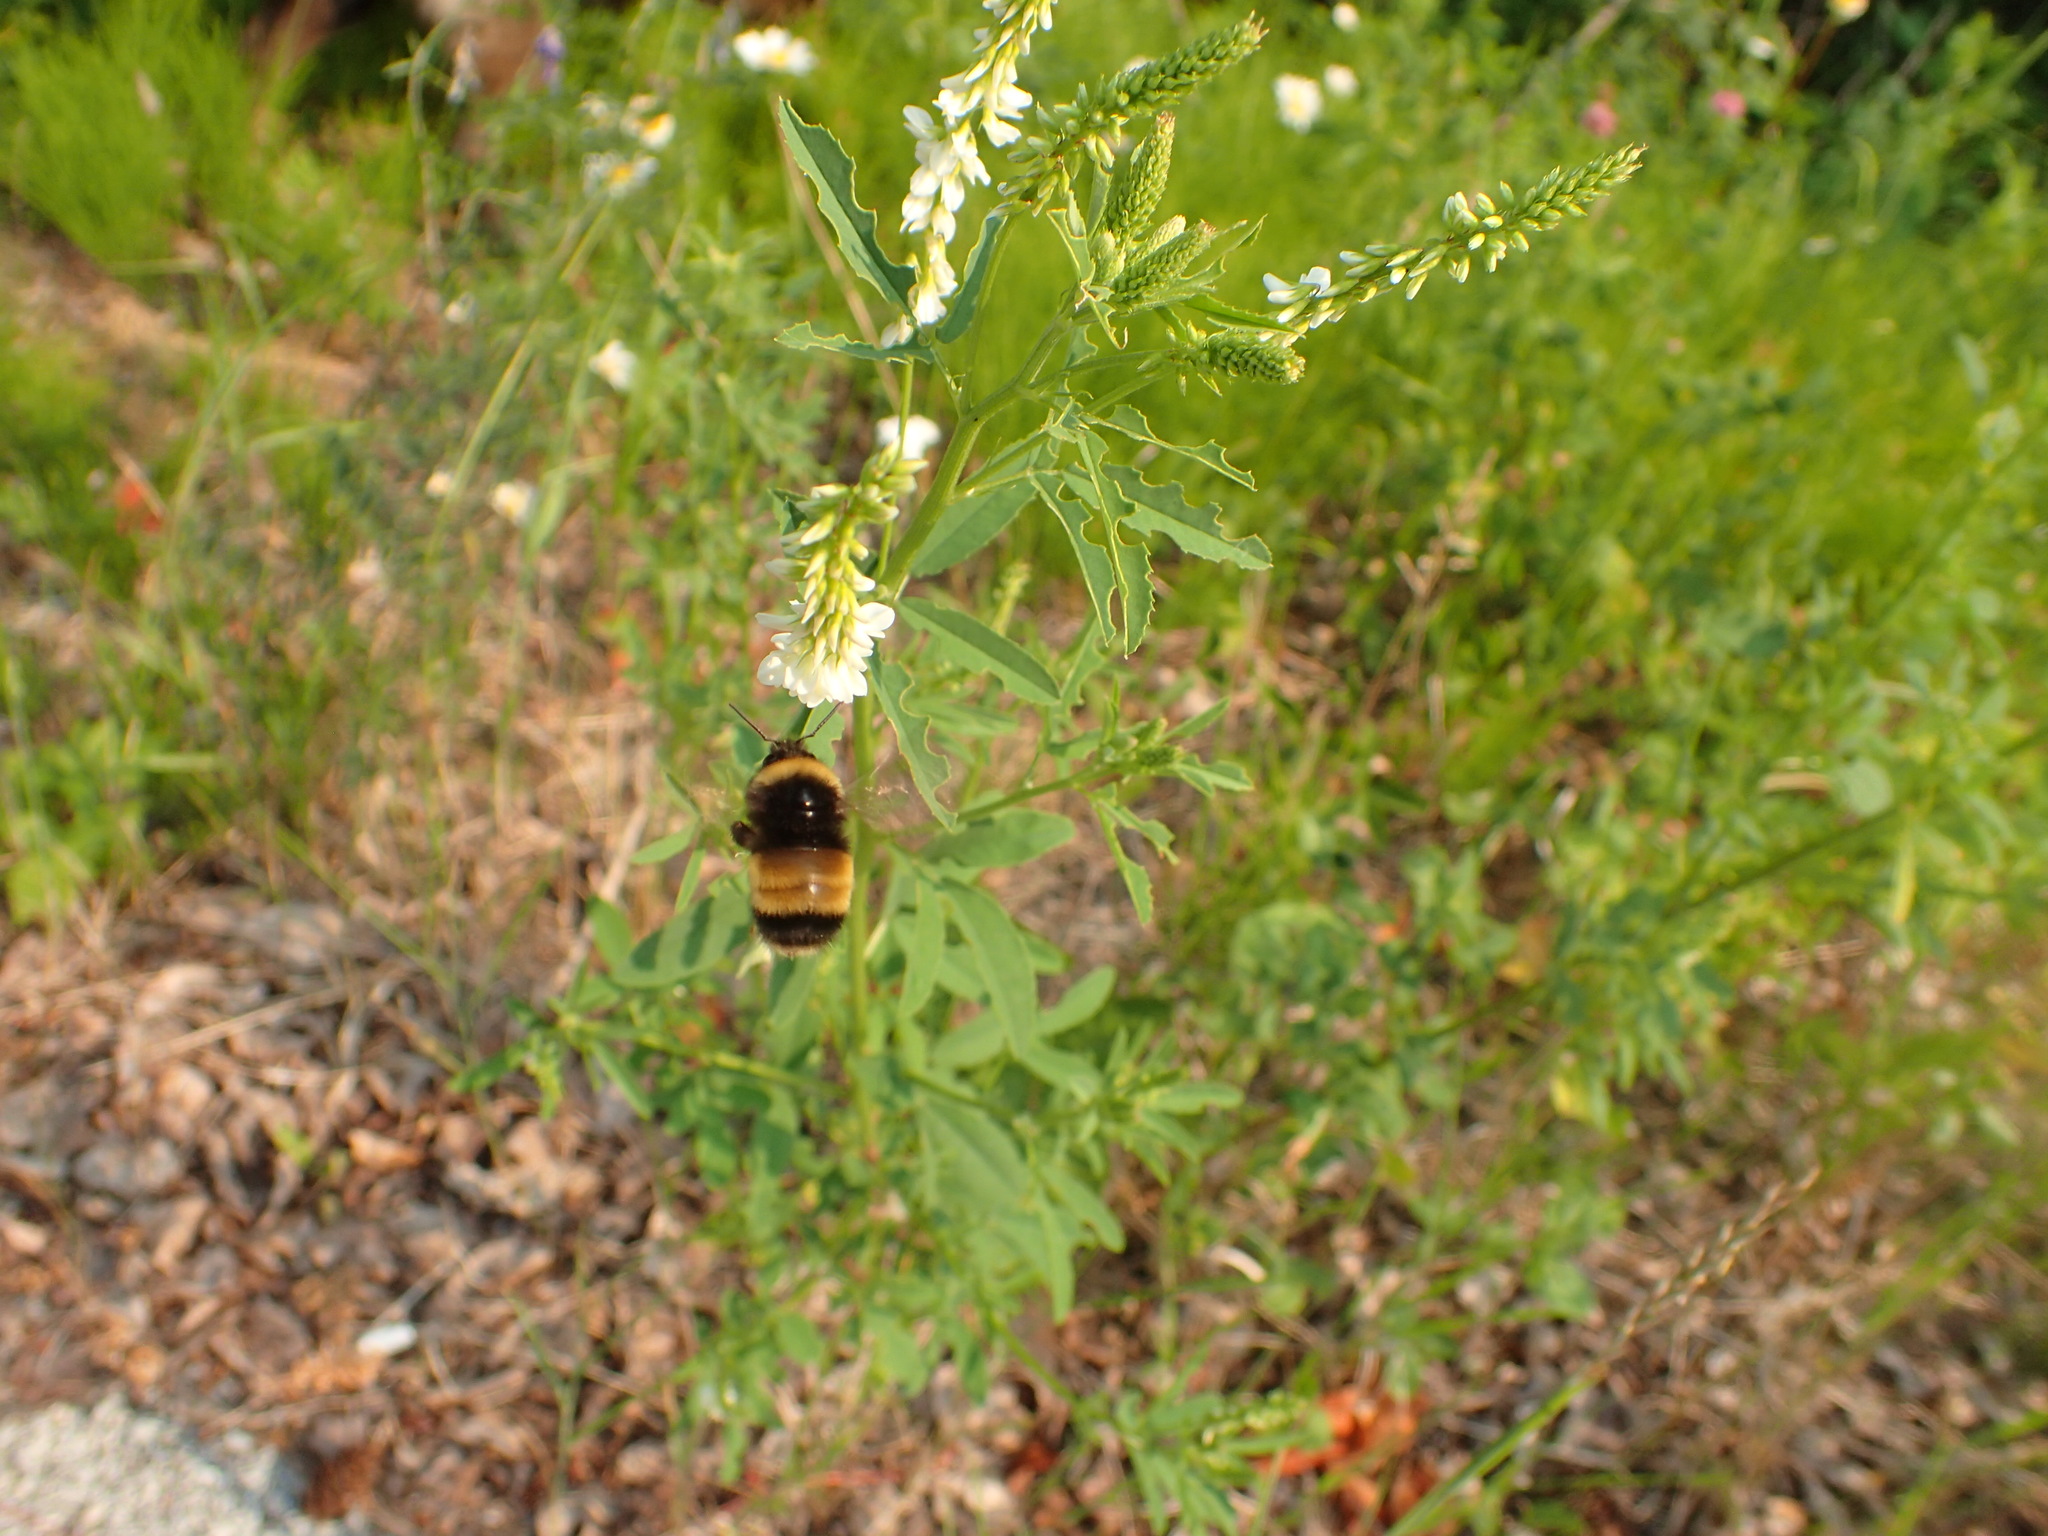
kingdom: Animalia
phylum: Arthropoda
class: Insecta
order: Hymenoptera
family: Apidae
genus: Bombus
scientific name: Bombus terricola
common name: Yellow-banded bumble bee
